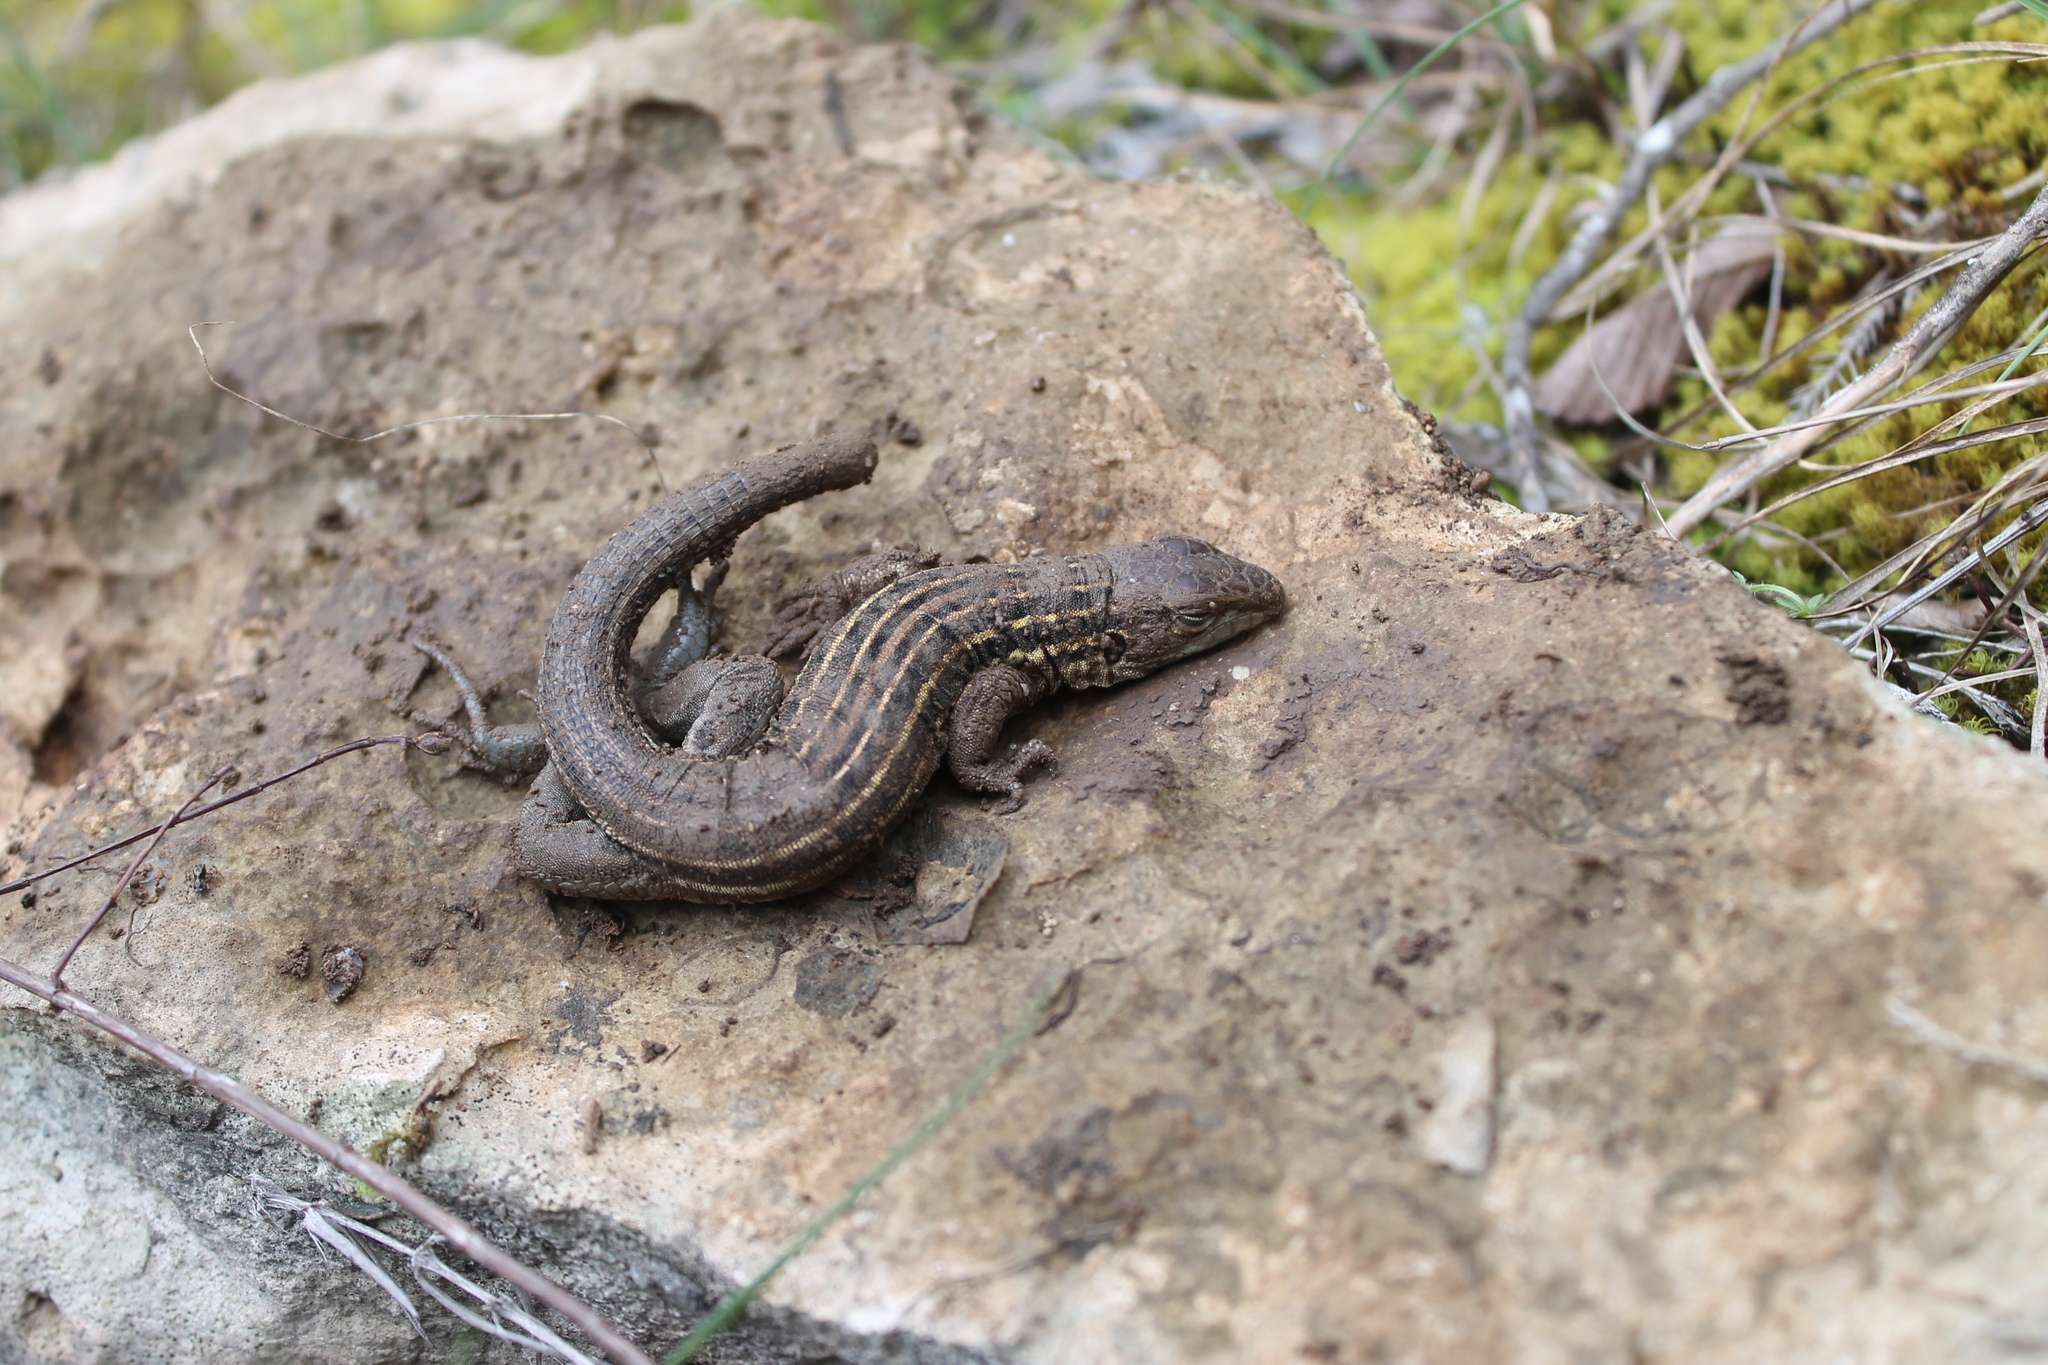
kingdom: Animalia
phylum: Chordata
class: Squamata
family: Teiidae
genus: Aspidoscelis
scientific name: Aspidoscelis sexlineatus
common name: Six-lined racerunner
